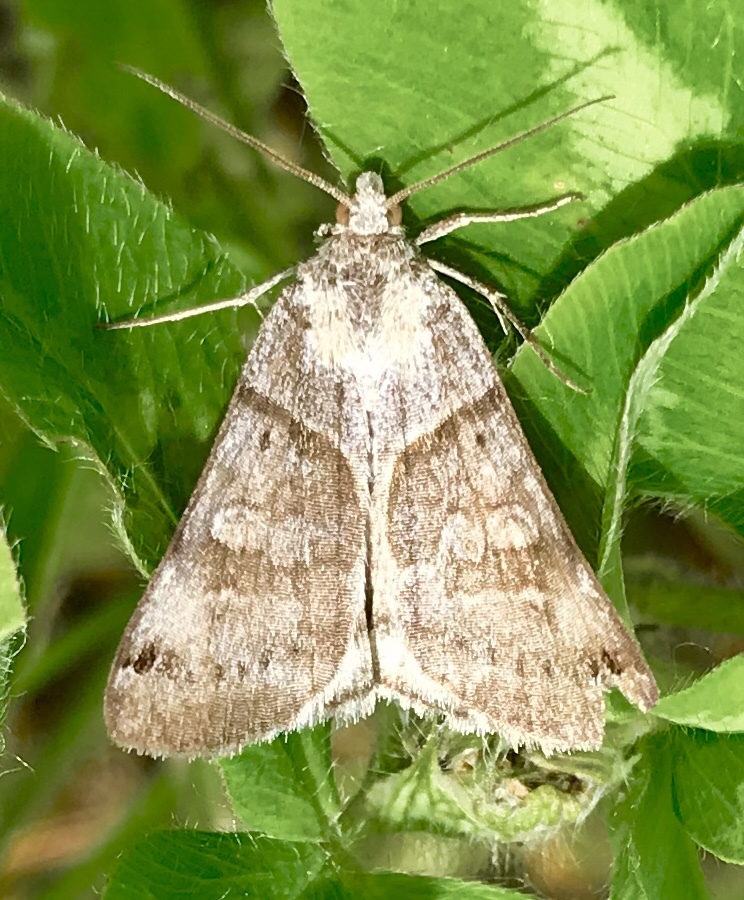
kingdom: Animalia
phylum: Arthropoda
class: Insecta
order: Lepidoptera
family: Erebidae
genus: Caenurgina
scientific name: Caenurgina crassiuscula
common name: Double-barred
